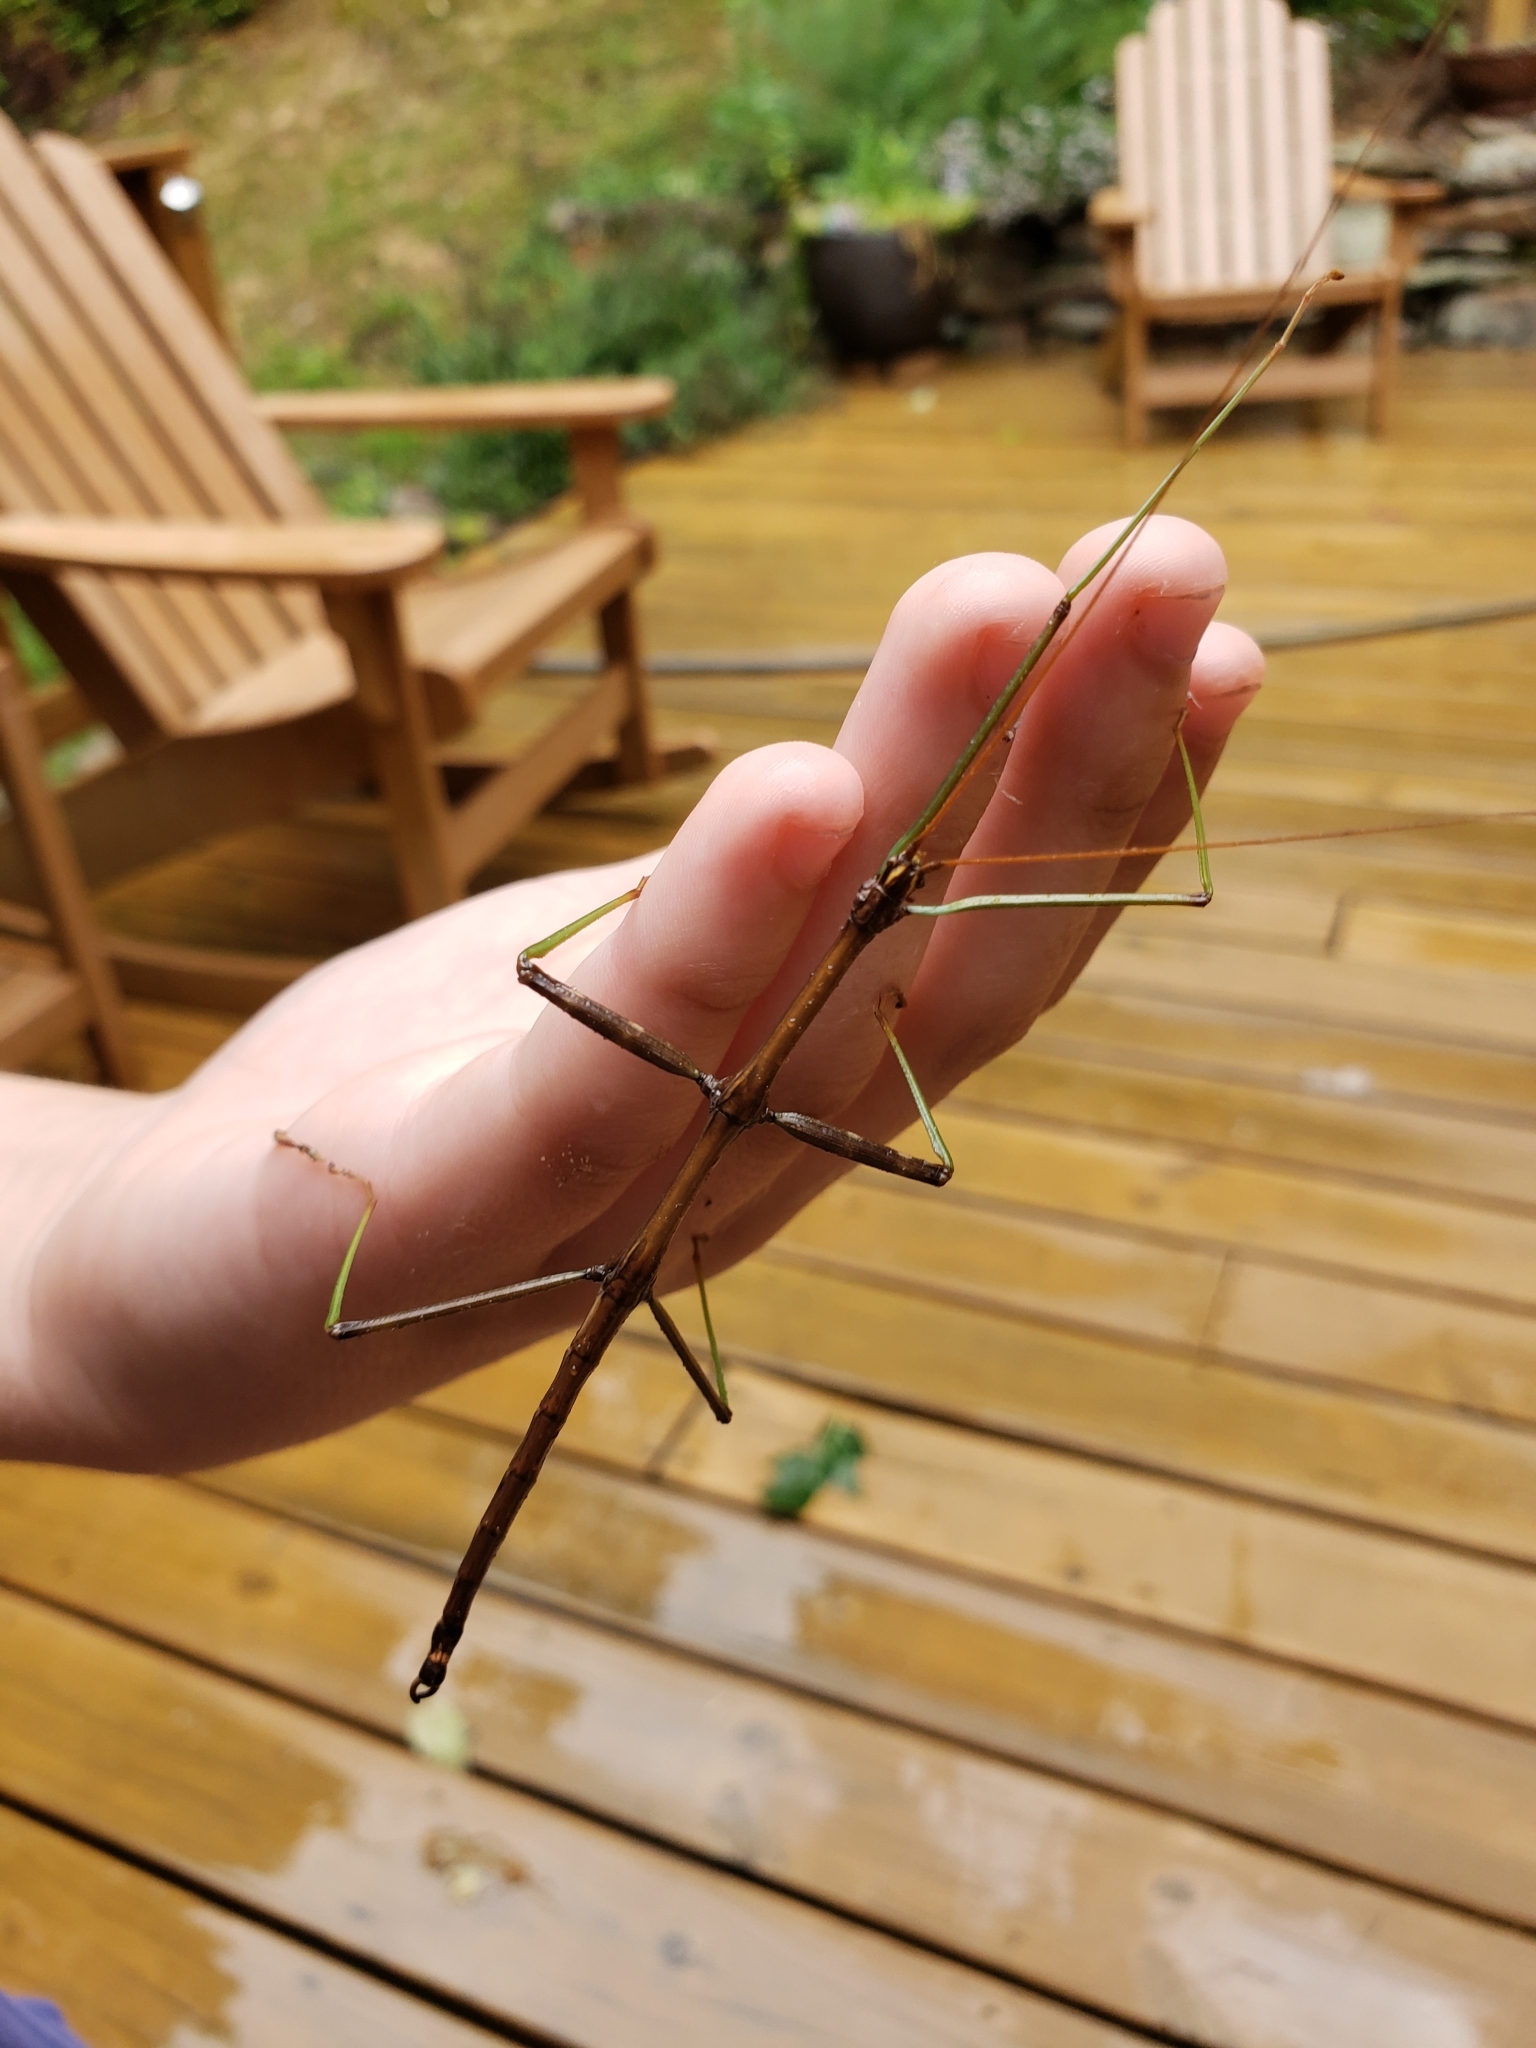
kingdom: Animalia
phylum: Arthropoda
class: Insecta
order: Phasmida
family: Diapheromeridae
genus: Diapheromera
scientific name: Diapheromera femorata
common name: Common american walkingstick
